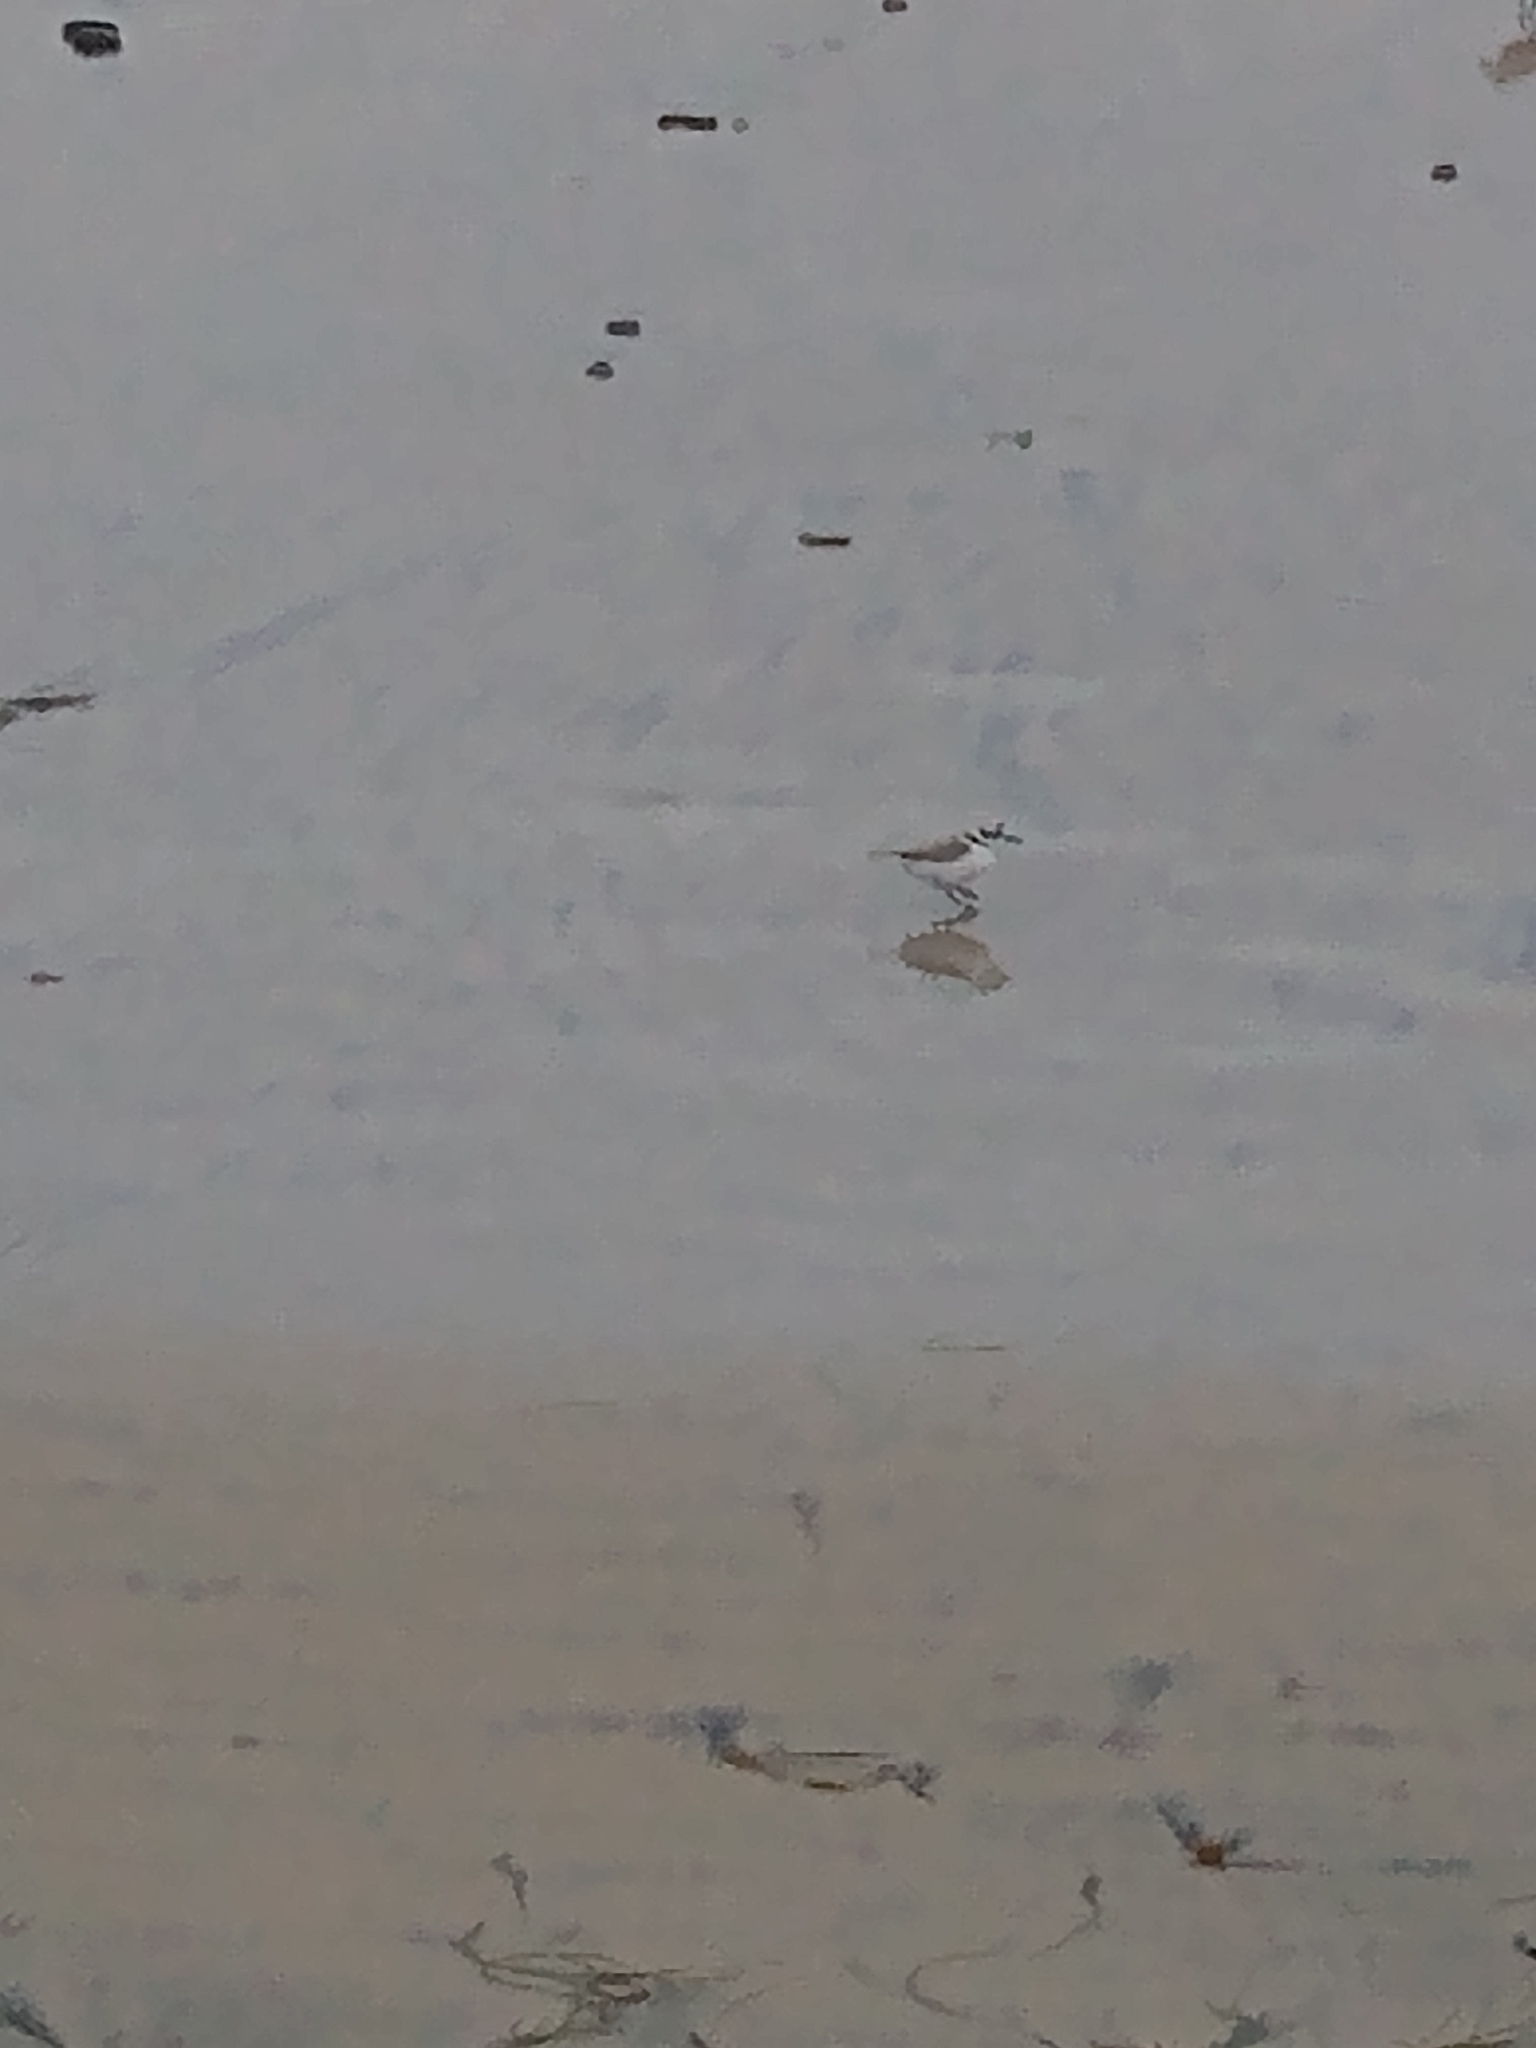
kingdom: Animalia
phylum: Chordata
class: Aves
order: Charadriiformes
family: Charadriidae
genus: Anarhynchus
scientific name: Anarhynchus
